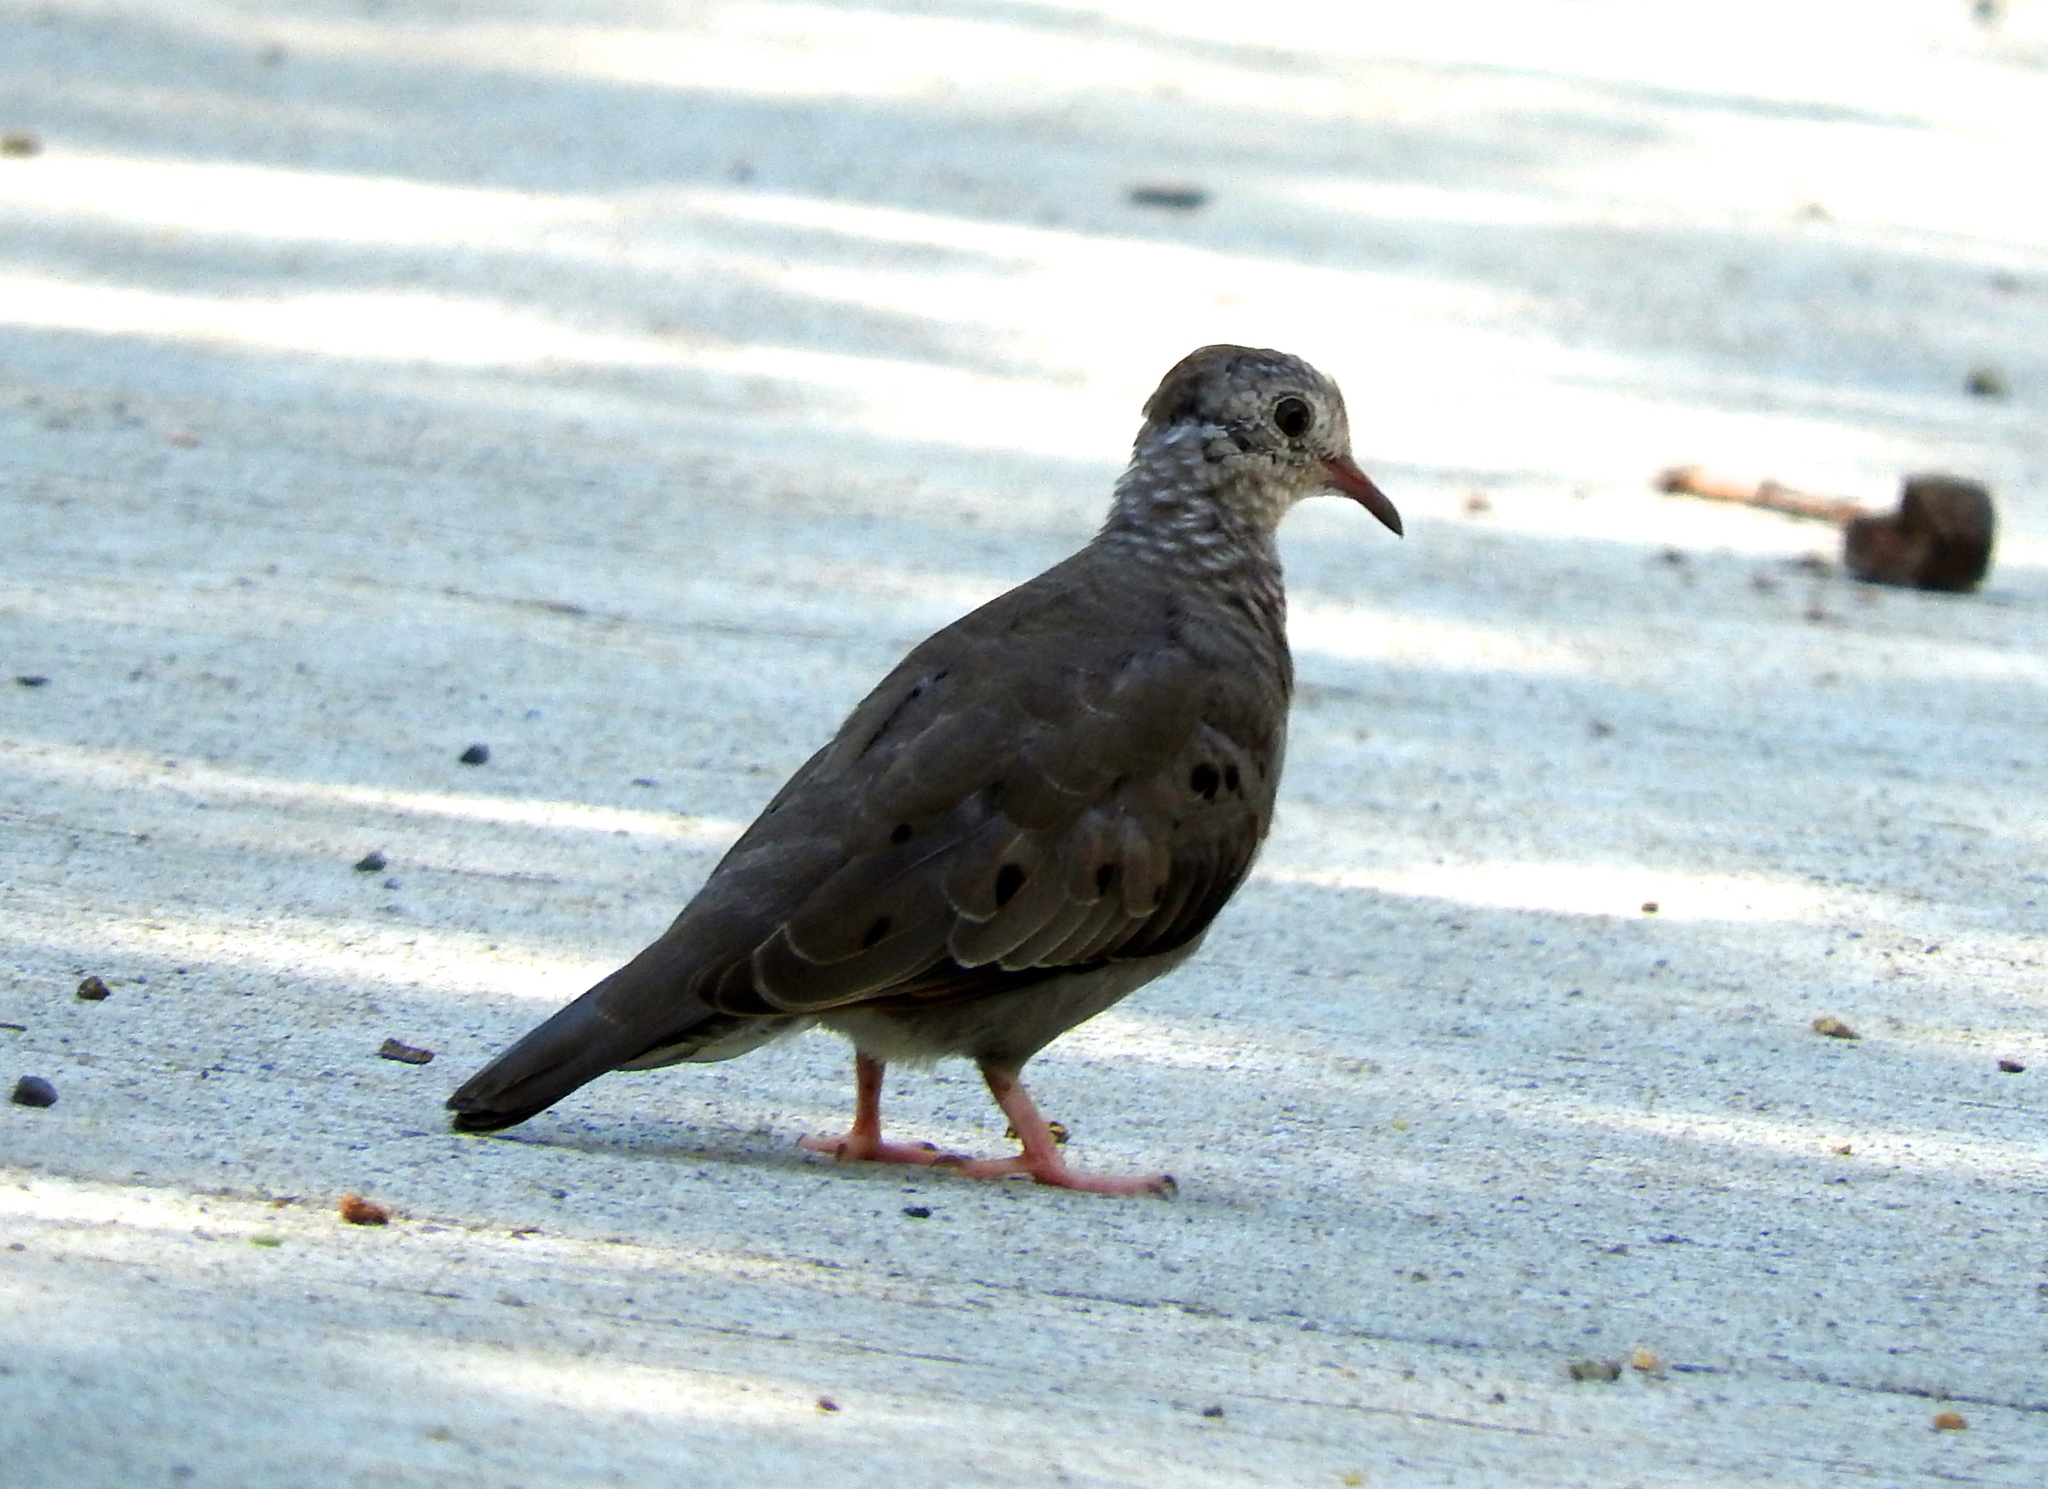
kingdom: Animalia
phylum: Chordata
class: Aves
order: Columbiformes
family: Columbidae
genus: Columbina
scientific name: Columbina passerina
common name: Common ground-dove
